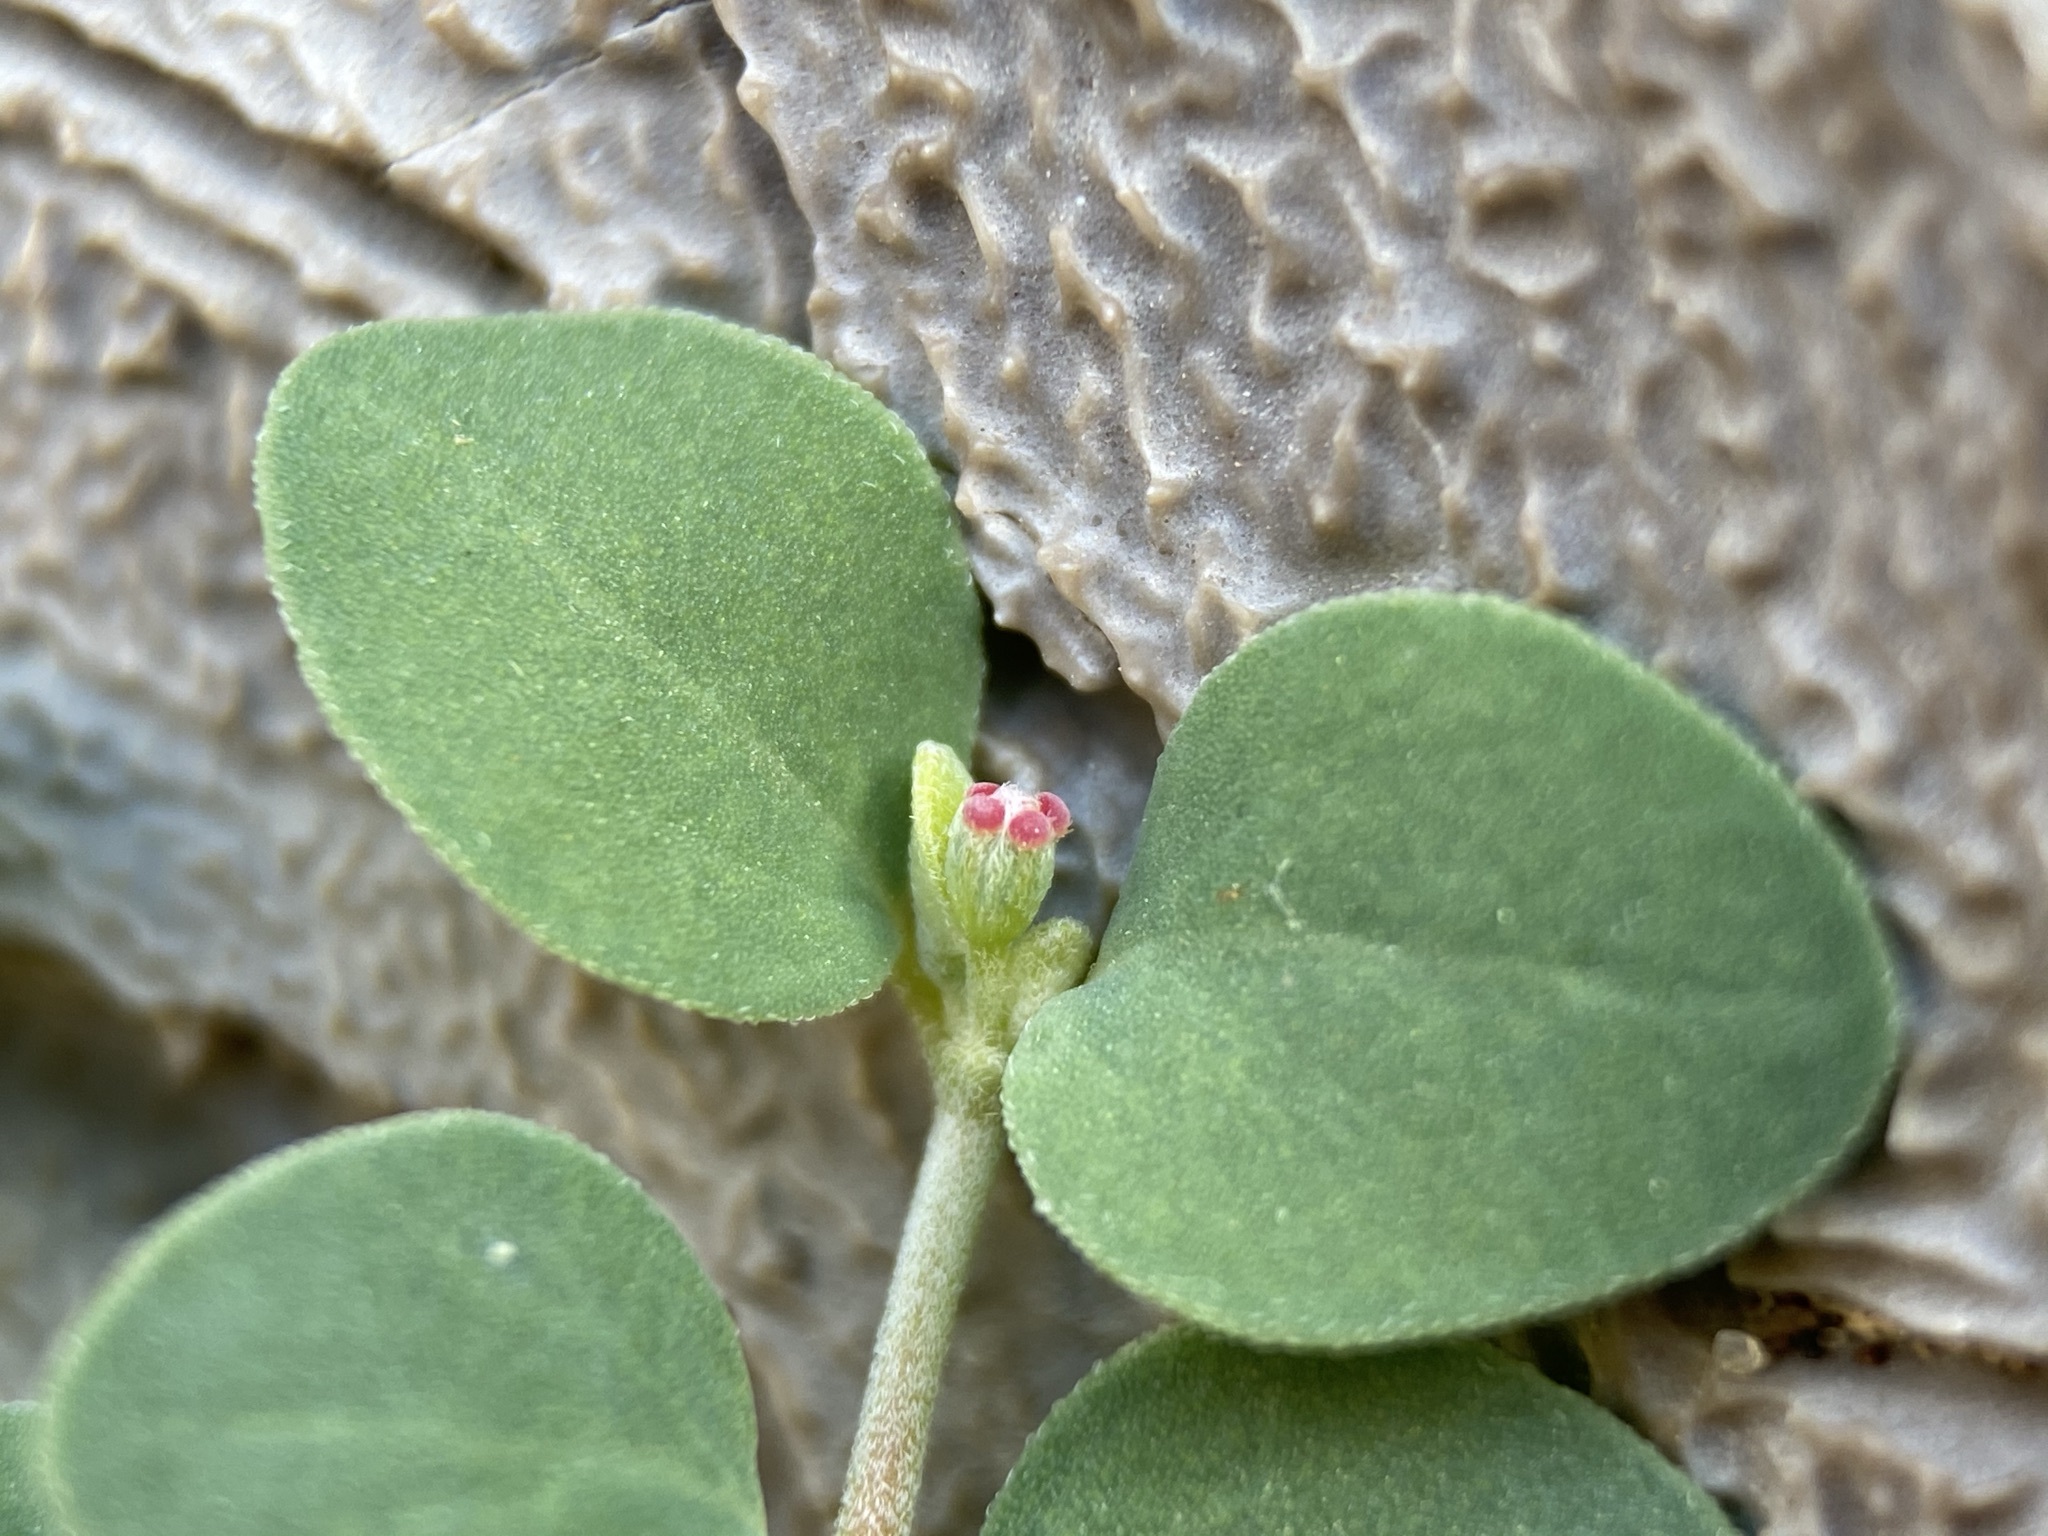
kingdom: Plantae
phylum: Tracheophyta
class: Magnoliopsida
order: Malpighiales
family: Euphorbiaceae
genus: Euphorbia
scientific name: Euphorbia cinerascens
